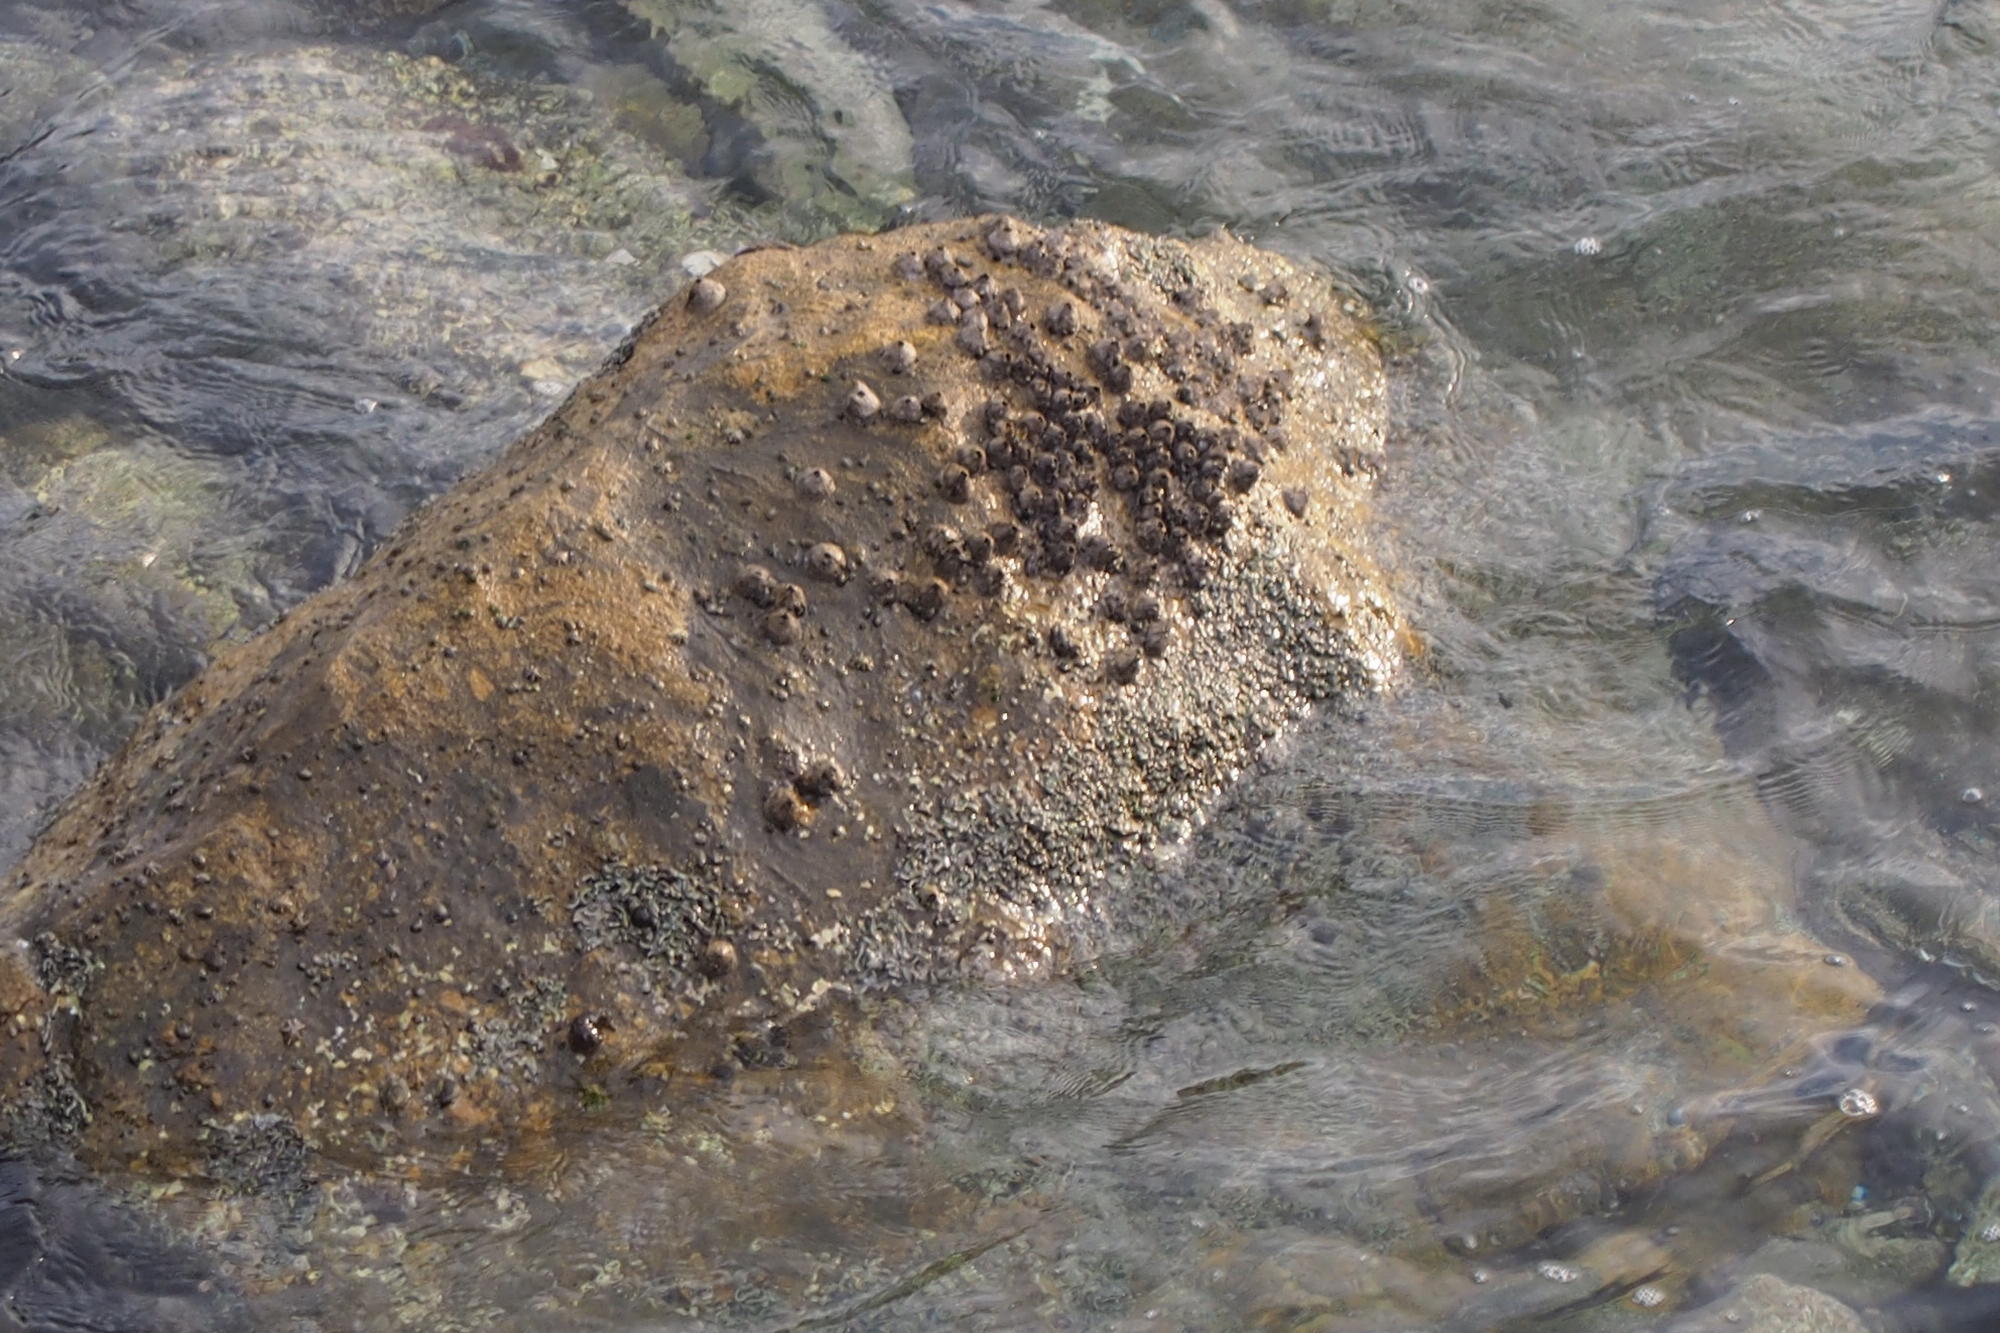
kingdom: Animalia
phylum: Arthropoda
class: Maxillopoda
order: Sessilia
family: Tetraclitidae
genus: Tetraclita
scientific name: Tetraclita japonica
